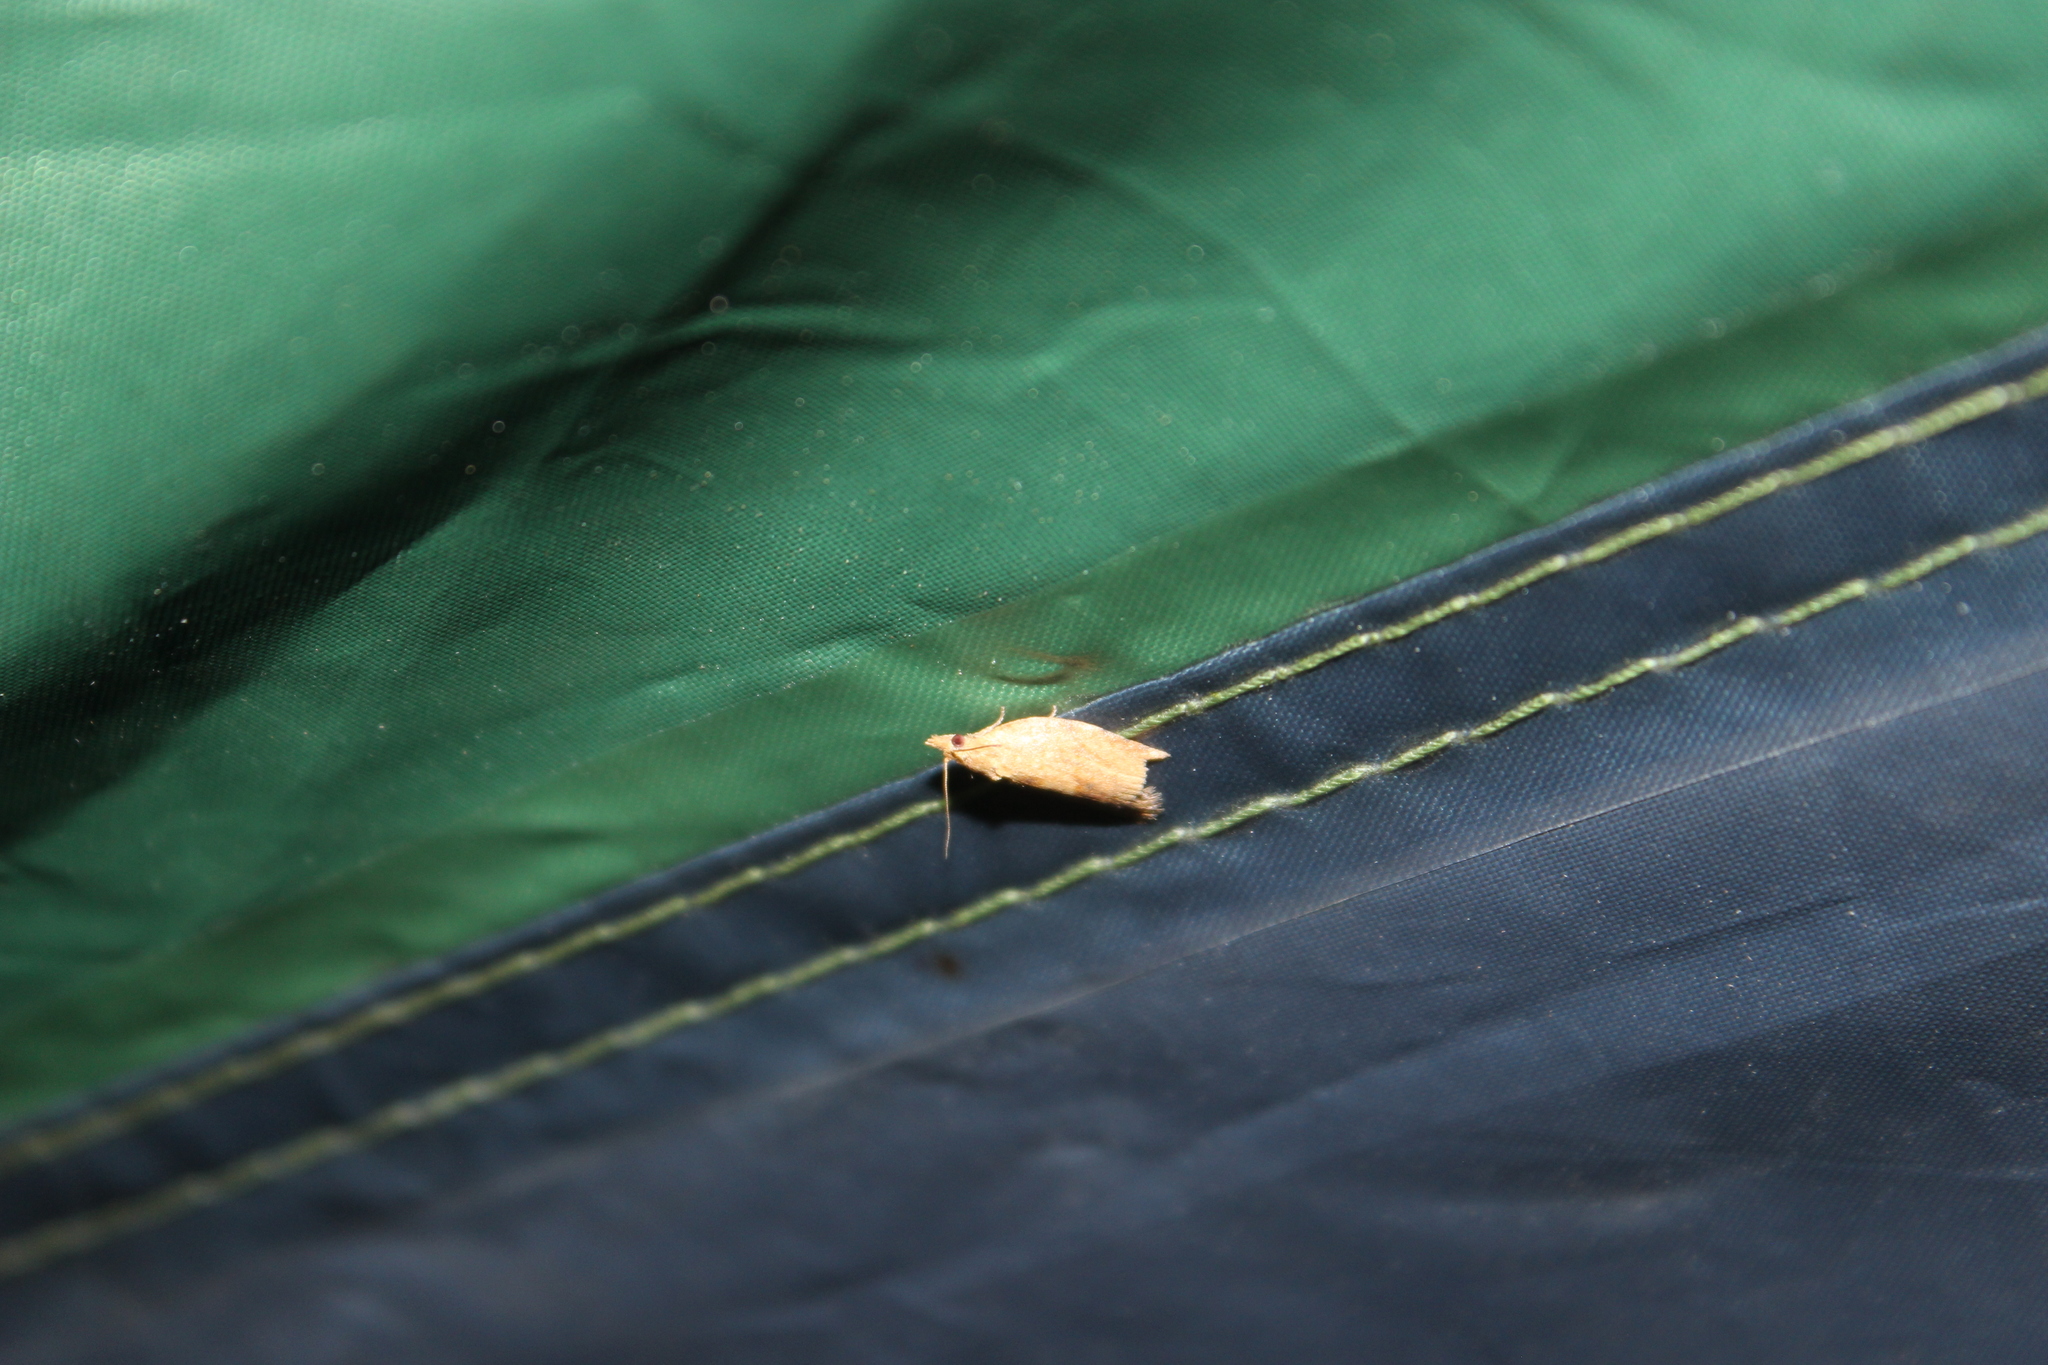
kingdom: Animalia
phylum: Arthropoda
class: Insecta
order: Lepidoptera
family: Tortricidae
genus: Epiphyas
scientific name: Epiphyas postvittana
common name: Light brown apple moth
